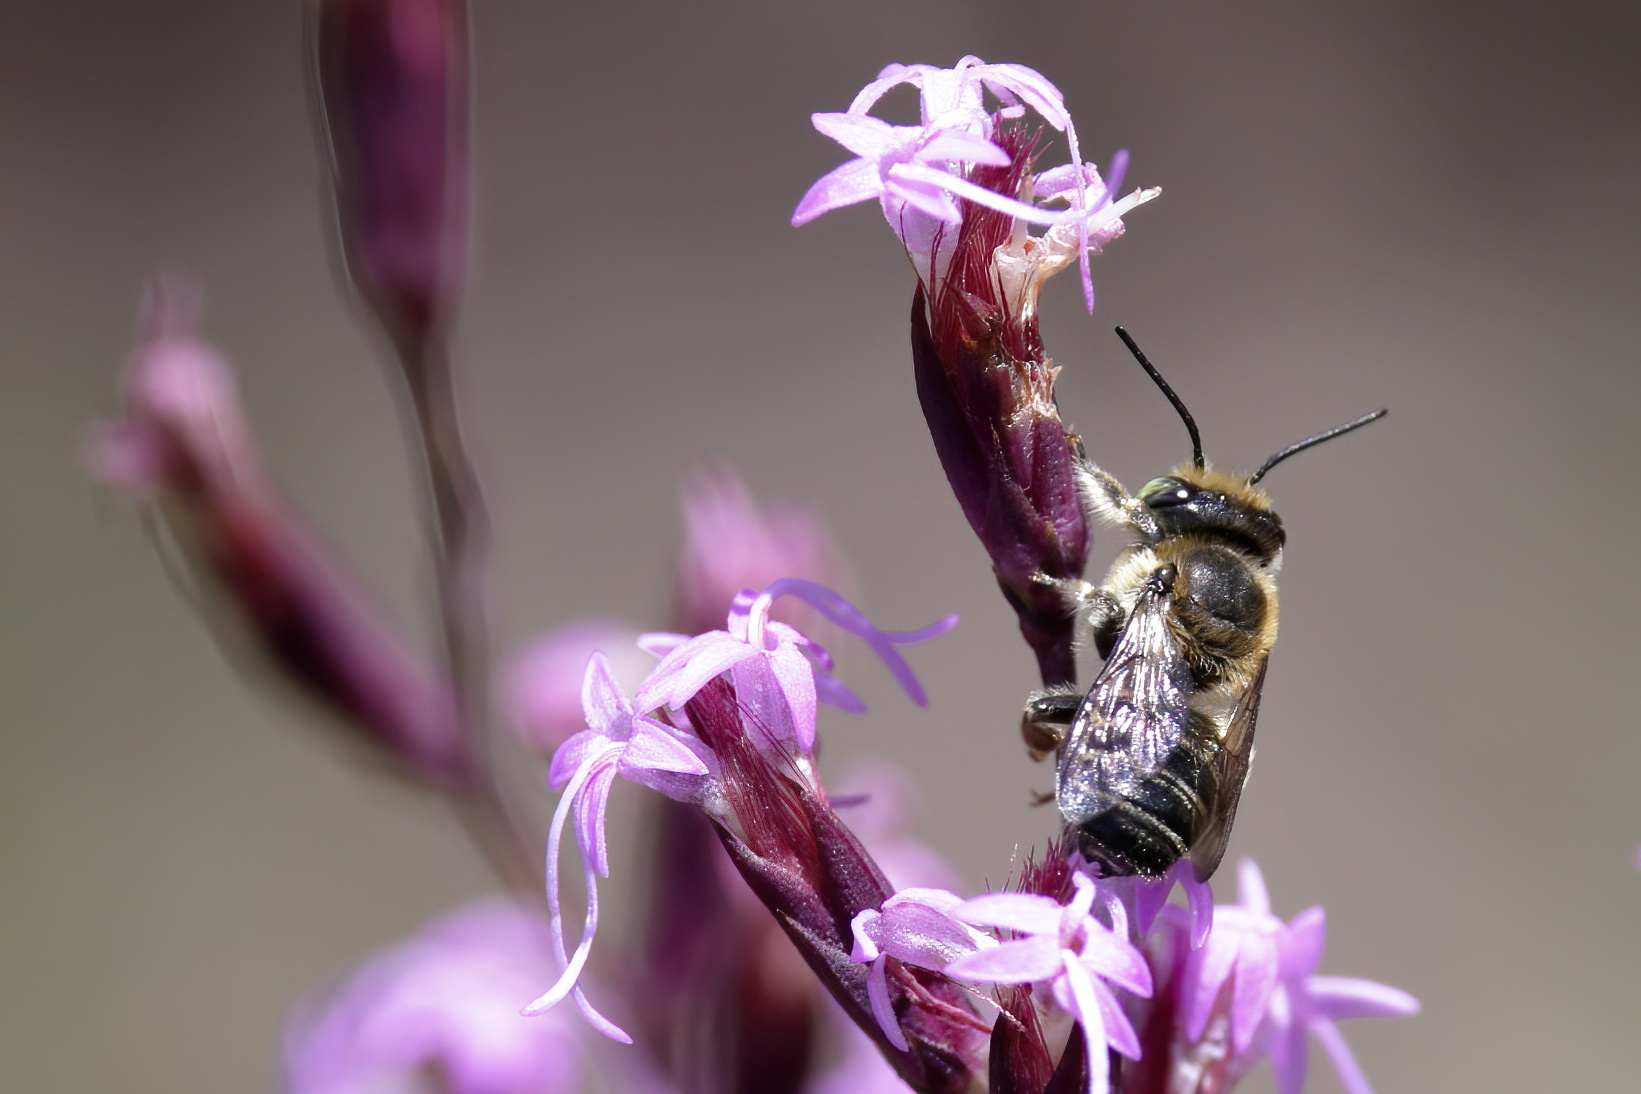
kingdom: Animalia
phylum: Arthropoda
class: Insecta
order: Hymenoptera
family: Megachilidae
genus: Megachile
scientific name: Megachile mendica
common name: Flat-tailed leafcutter
